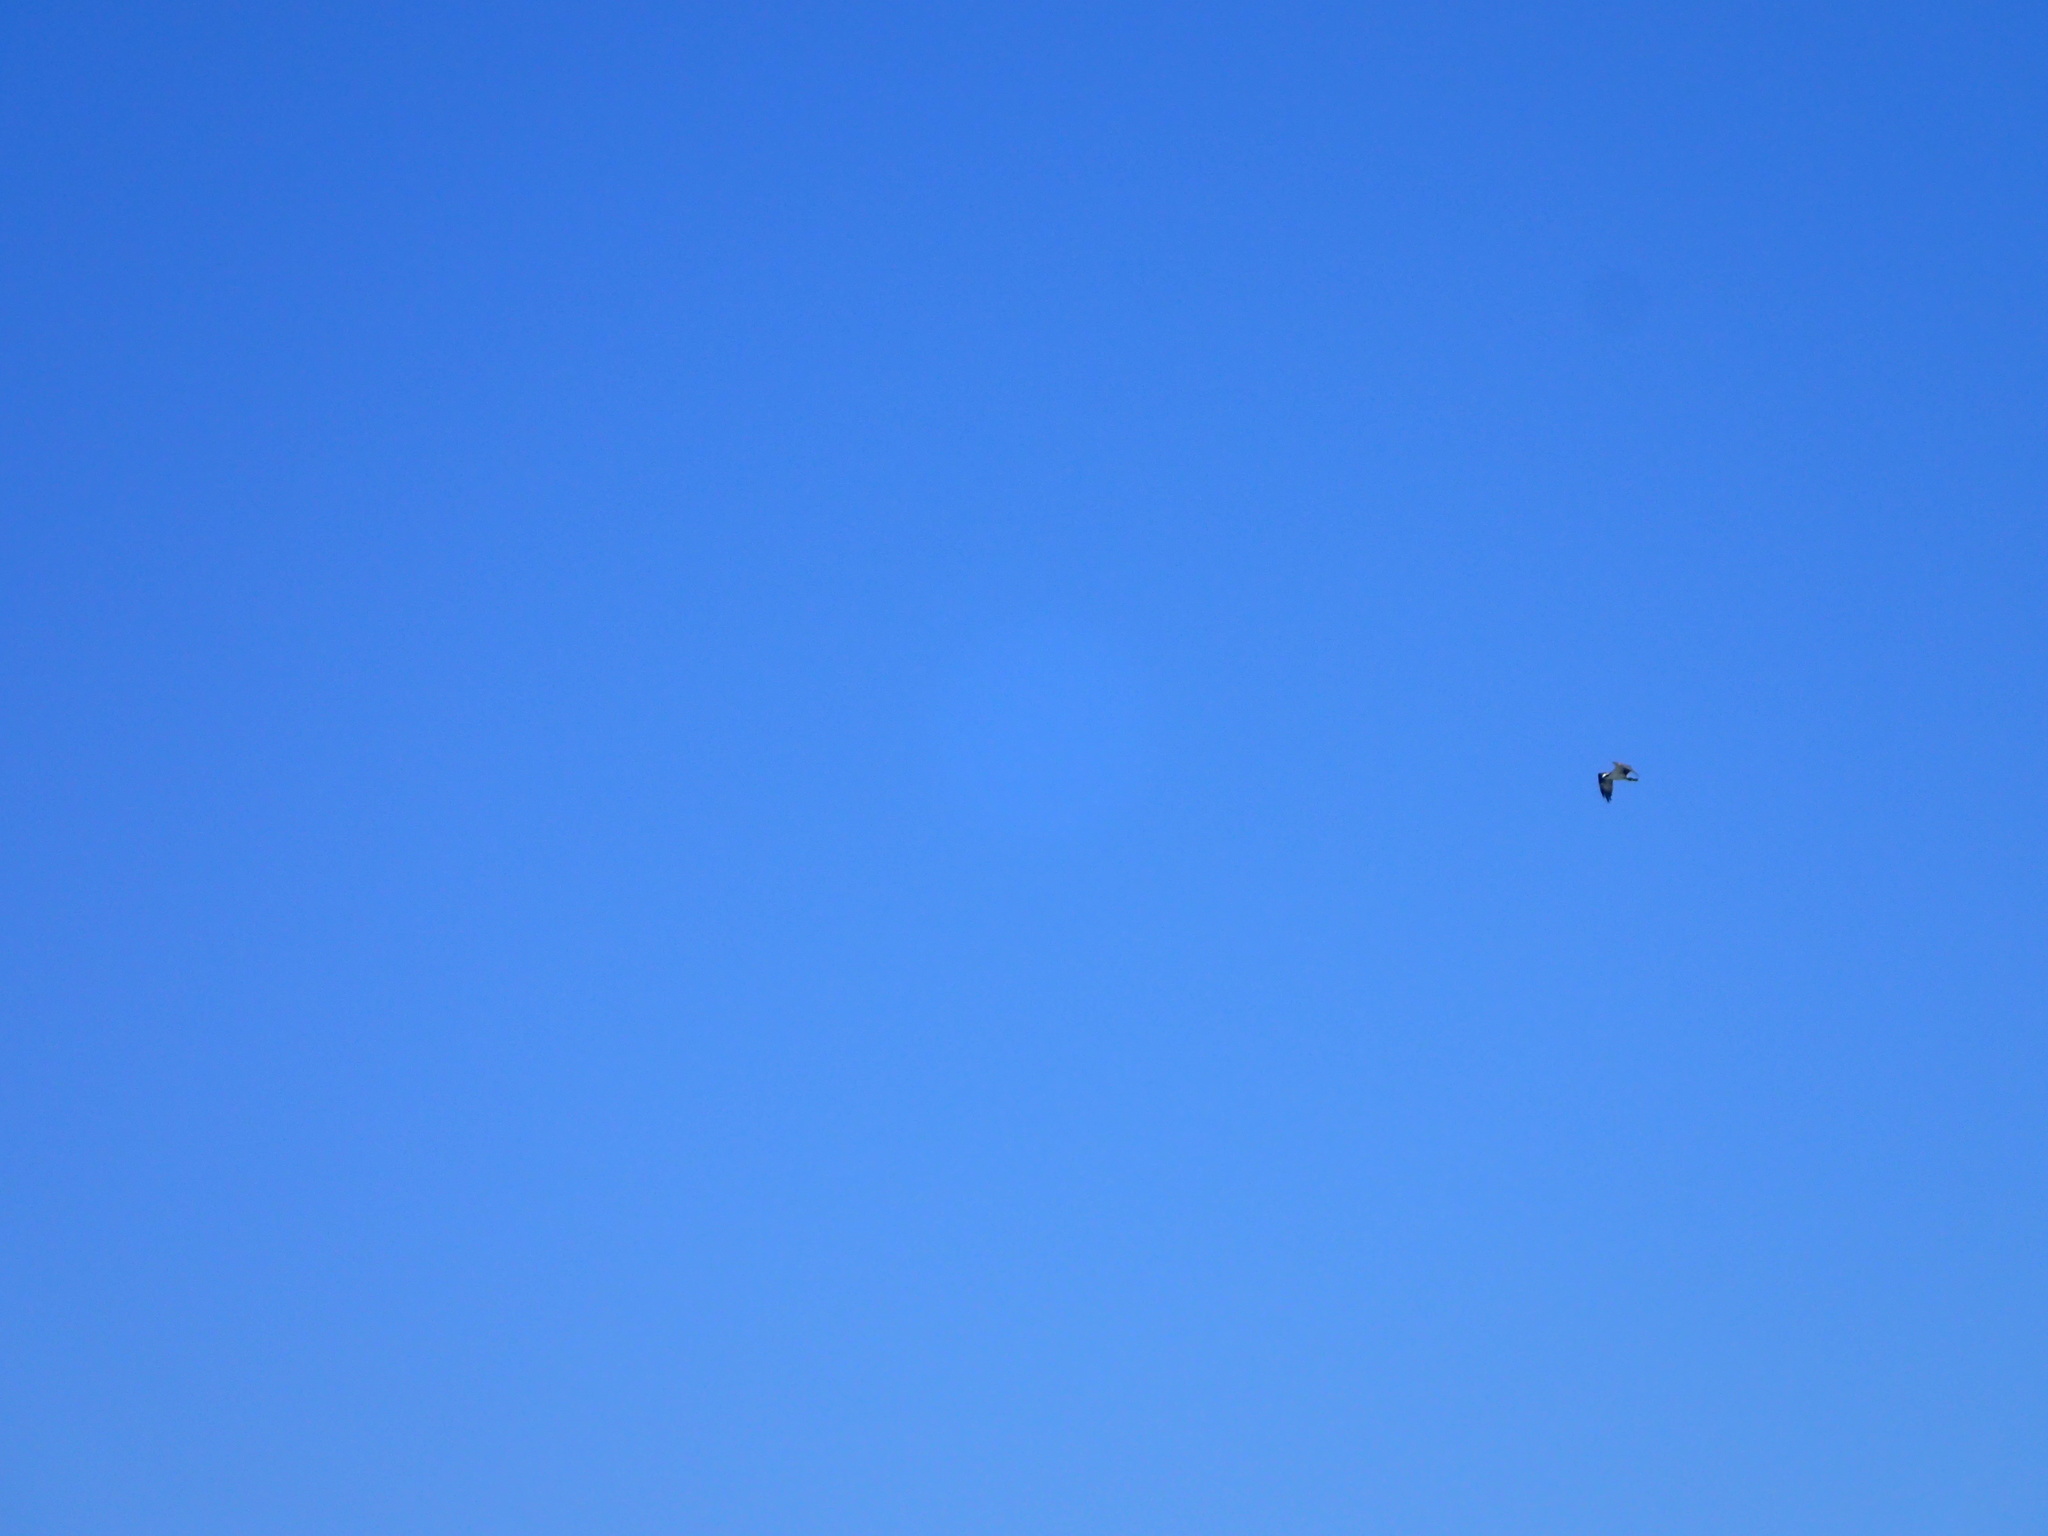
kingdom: Animalia
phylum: Chordata
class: Aves
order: Accipitriformes
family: Pandionidae
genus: Pandion
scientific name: Pandion haliaetus
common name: Osprey
